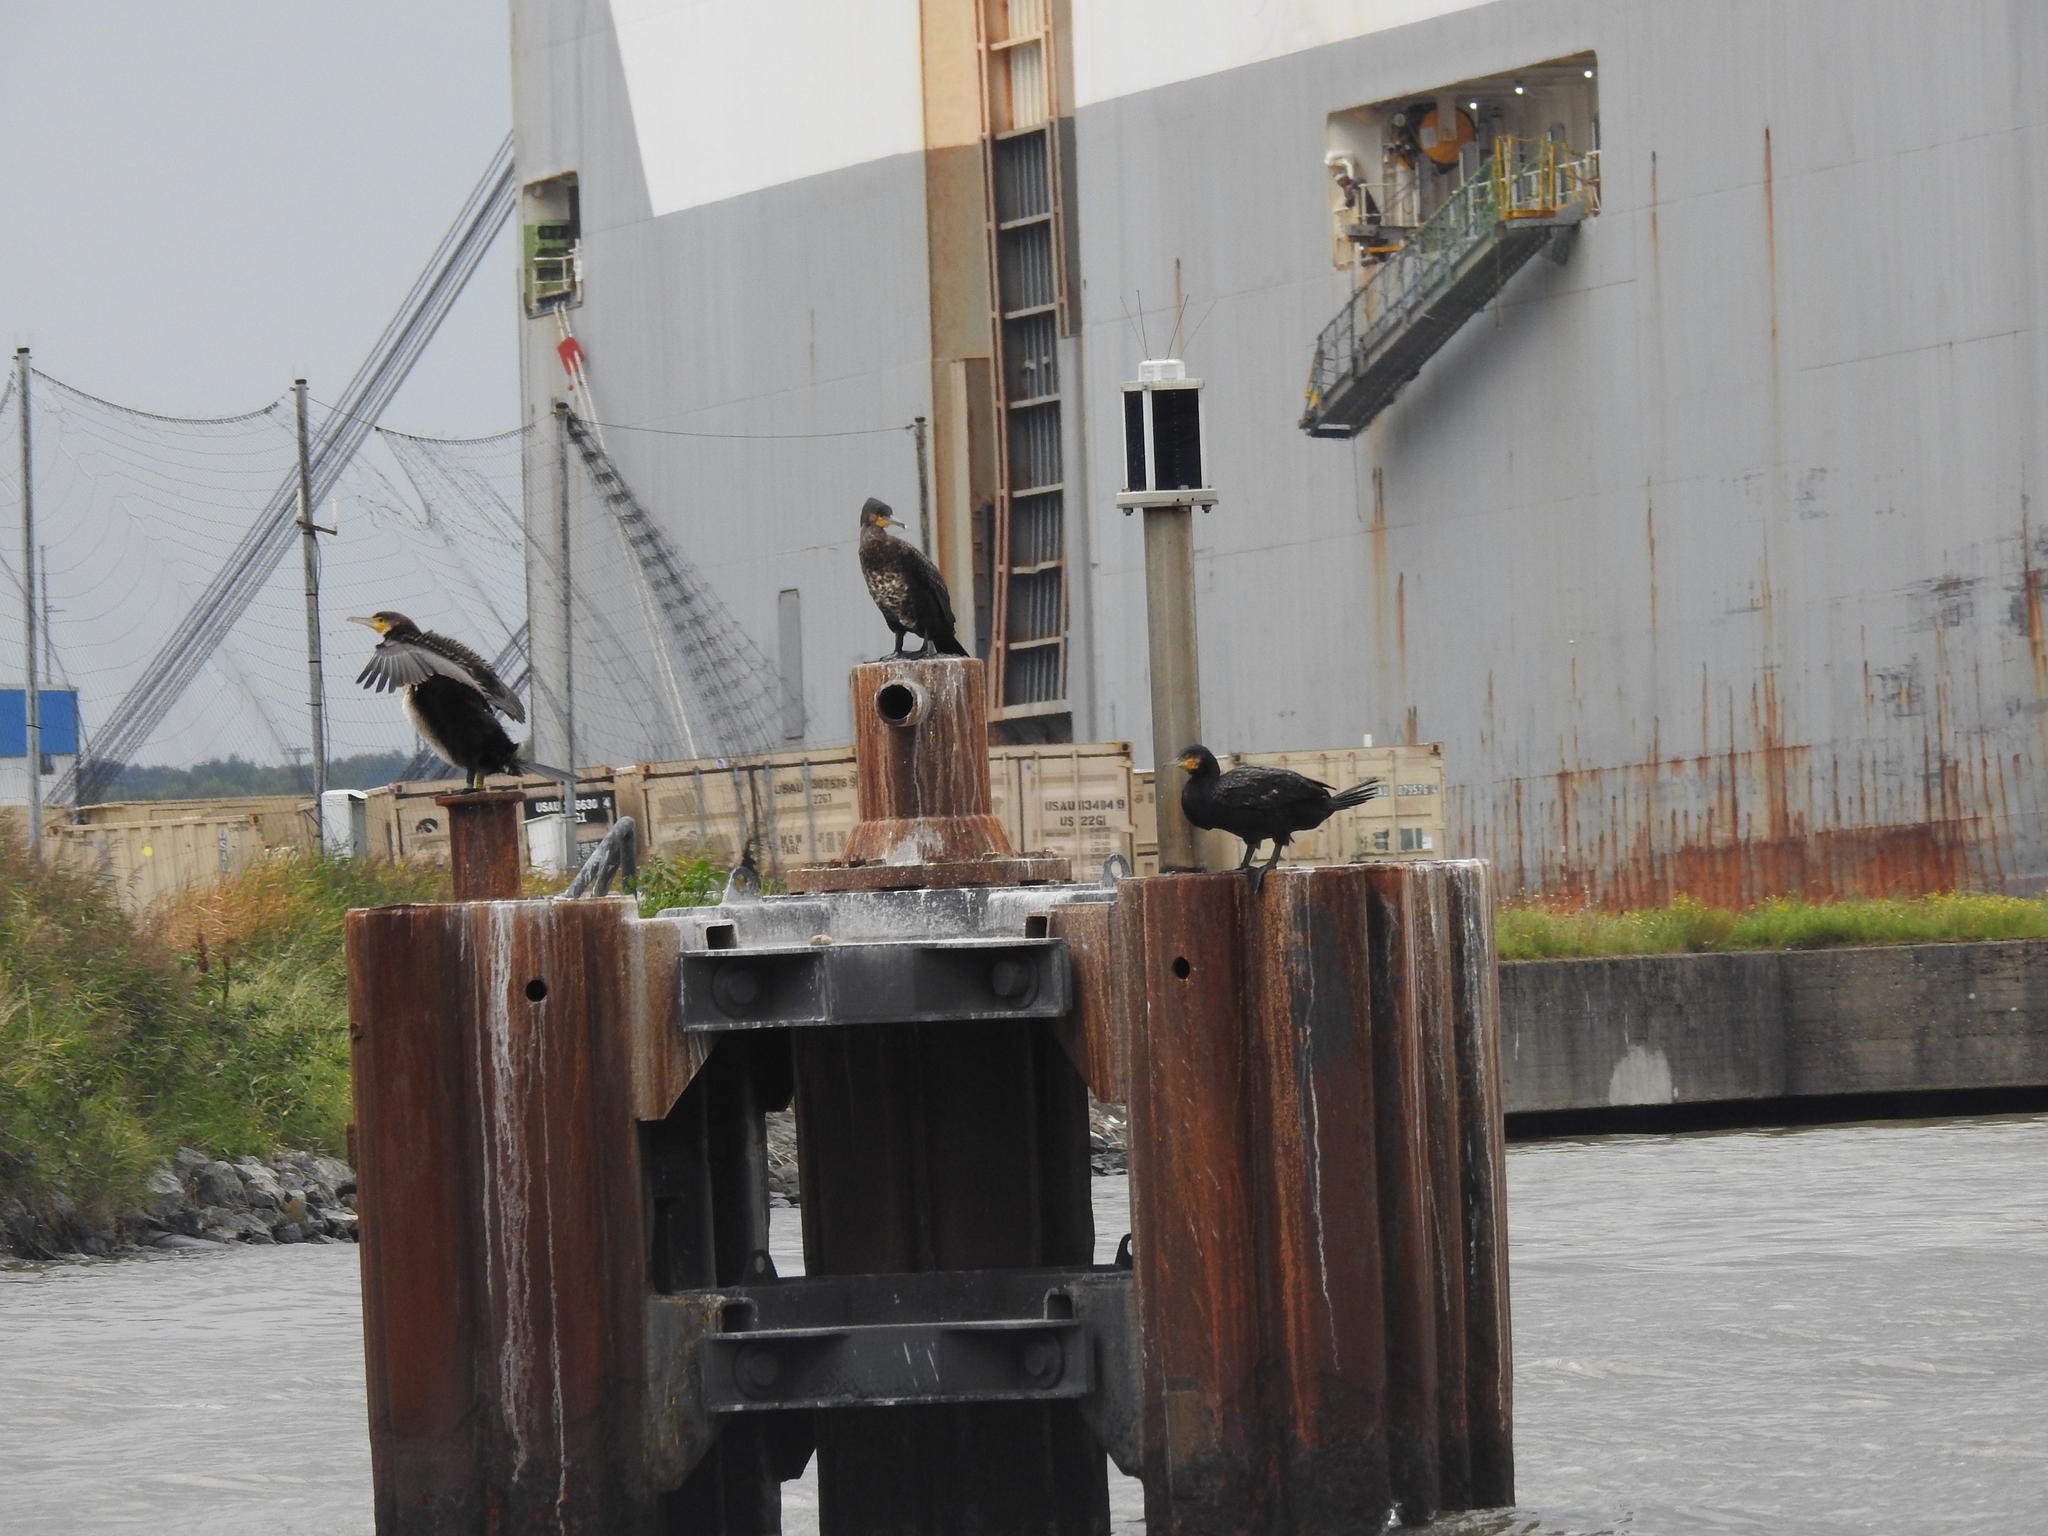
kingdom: Animalia
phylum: Chordata
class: Aves
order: Suliformes
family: Phalacrocoracidae
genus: Phalacrocorax
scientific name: Phalacrocorax carbo
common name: Great cormorant
